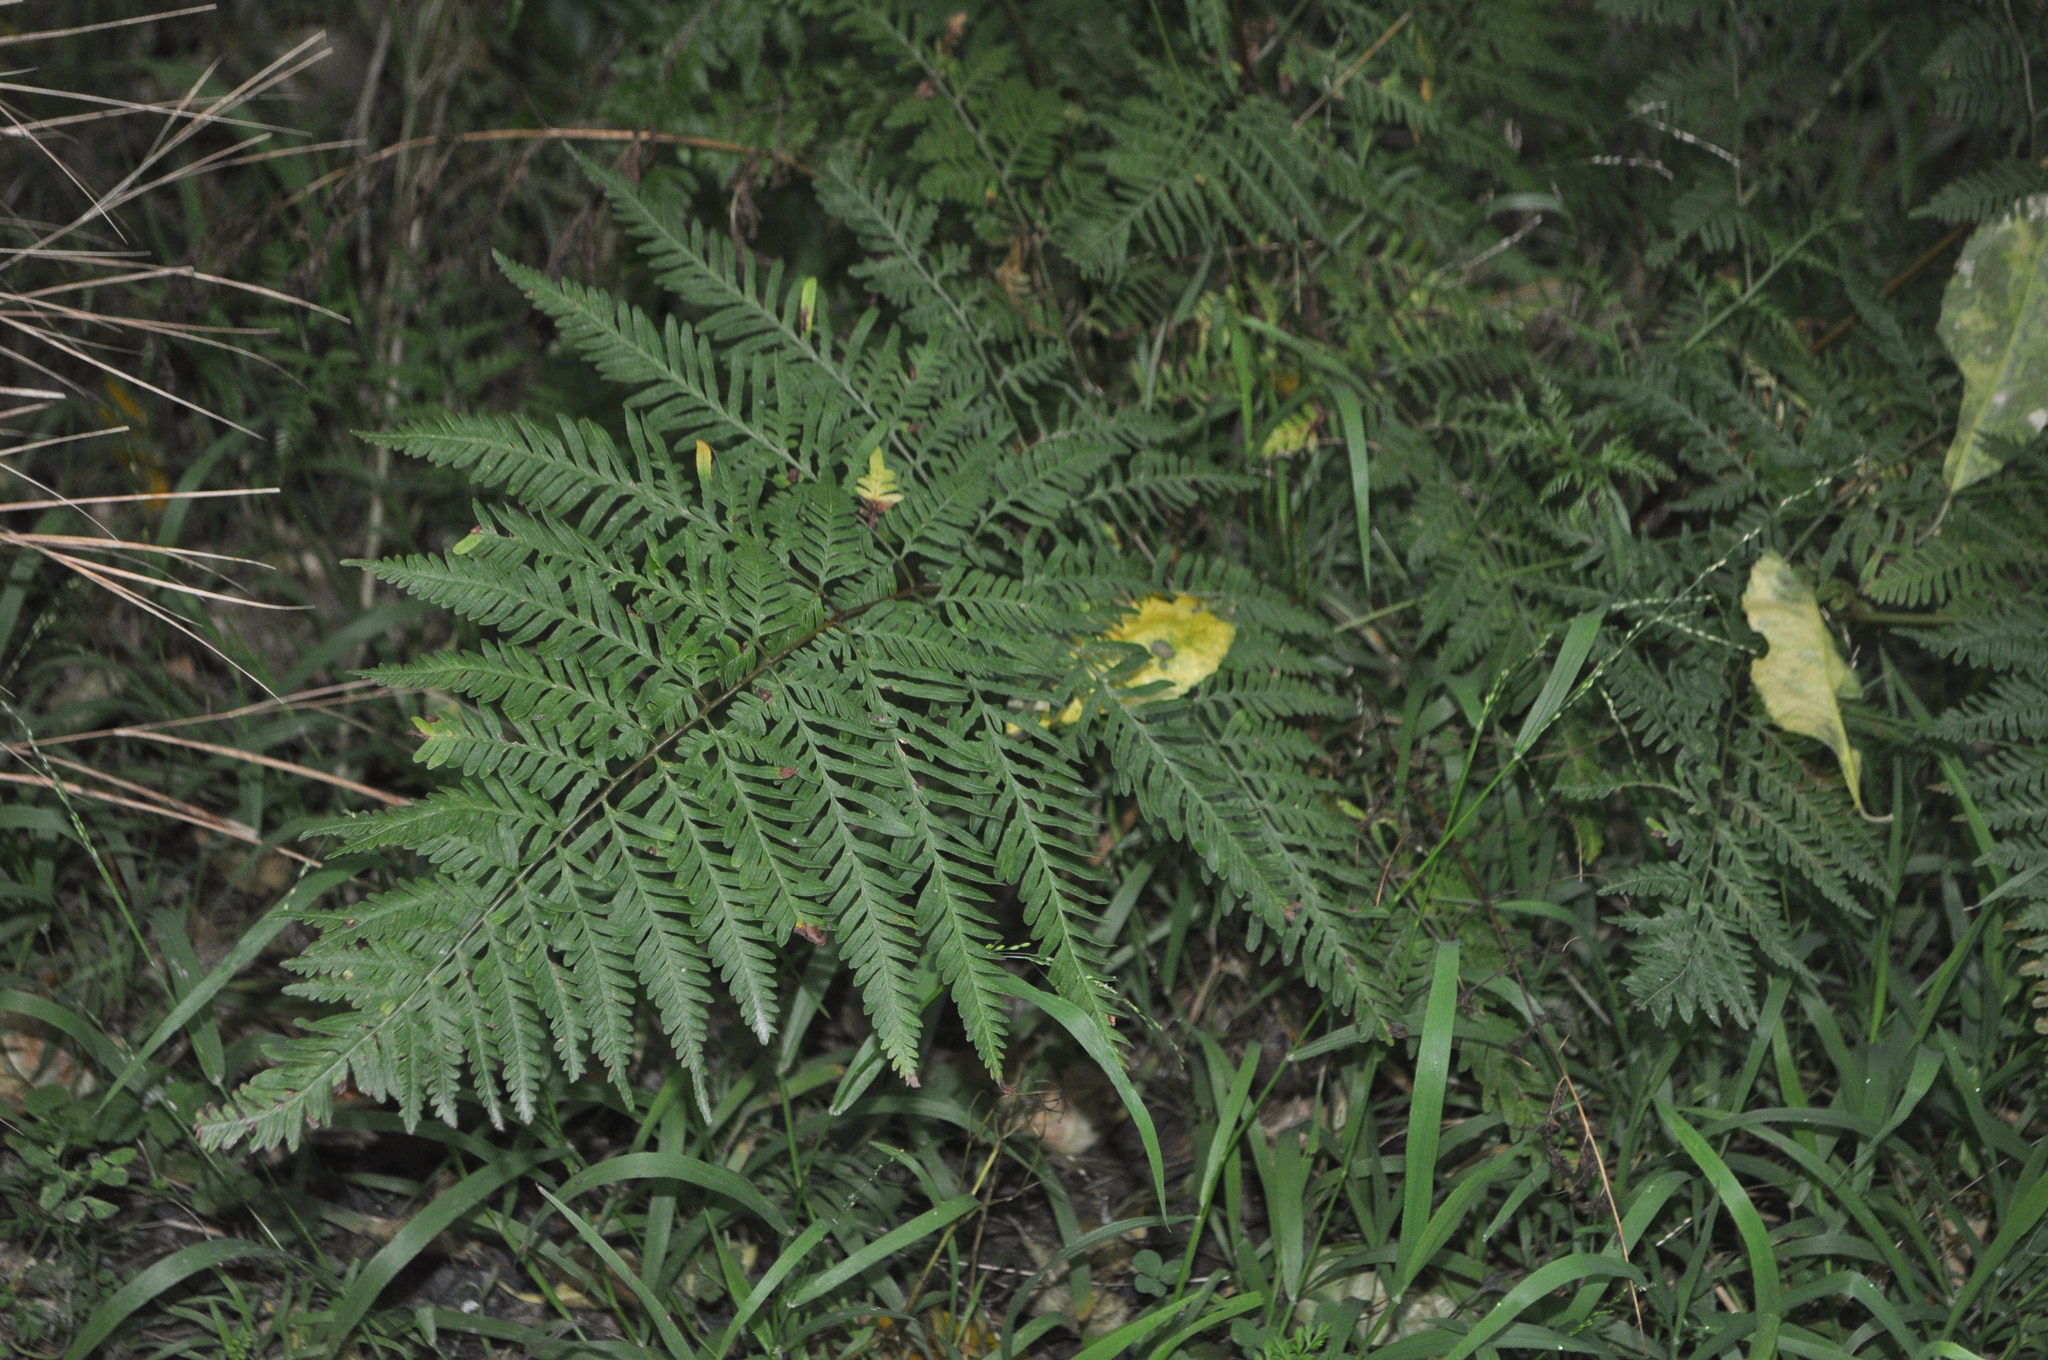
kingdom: Plantae
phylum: Tracheophyta
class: Polypodiopsida
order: Polypodiales
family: Pteridaceae
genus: Pteris
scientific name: Pteris tremula
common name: Australian brake
